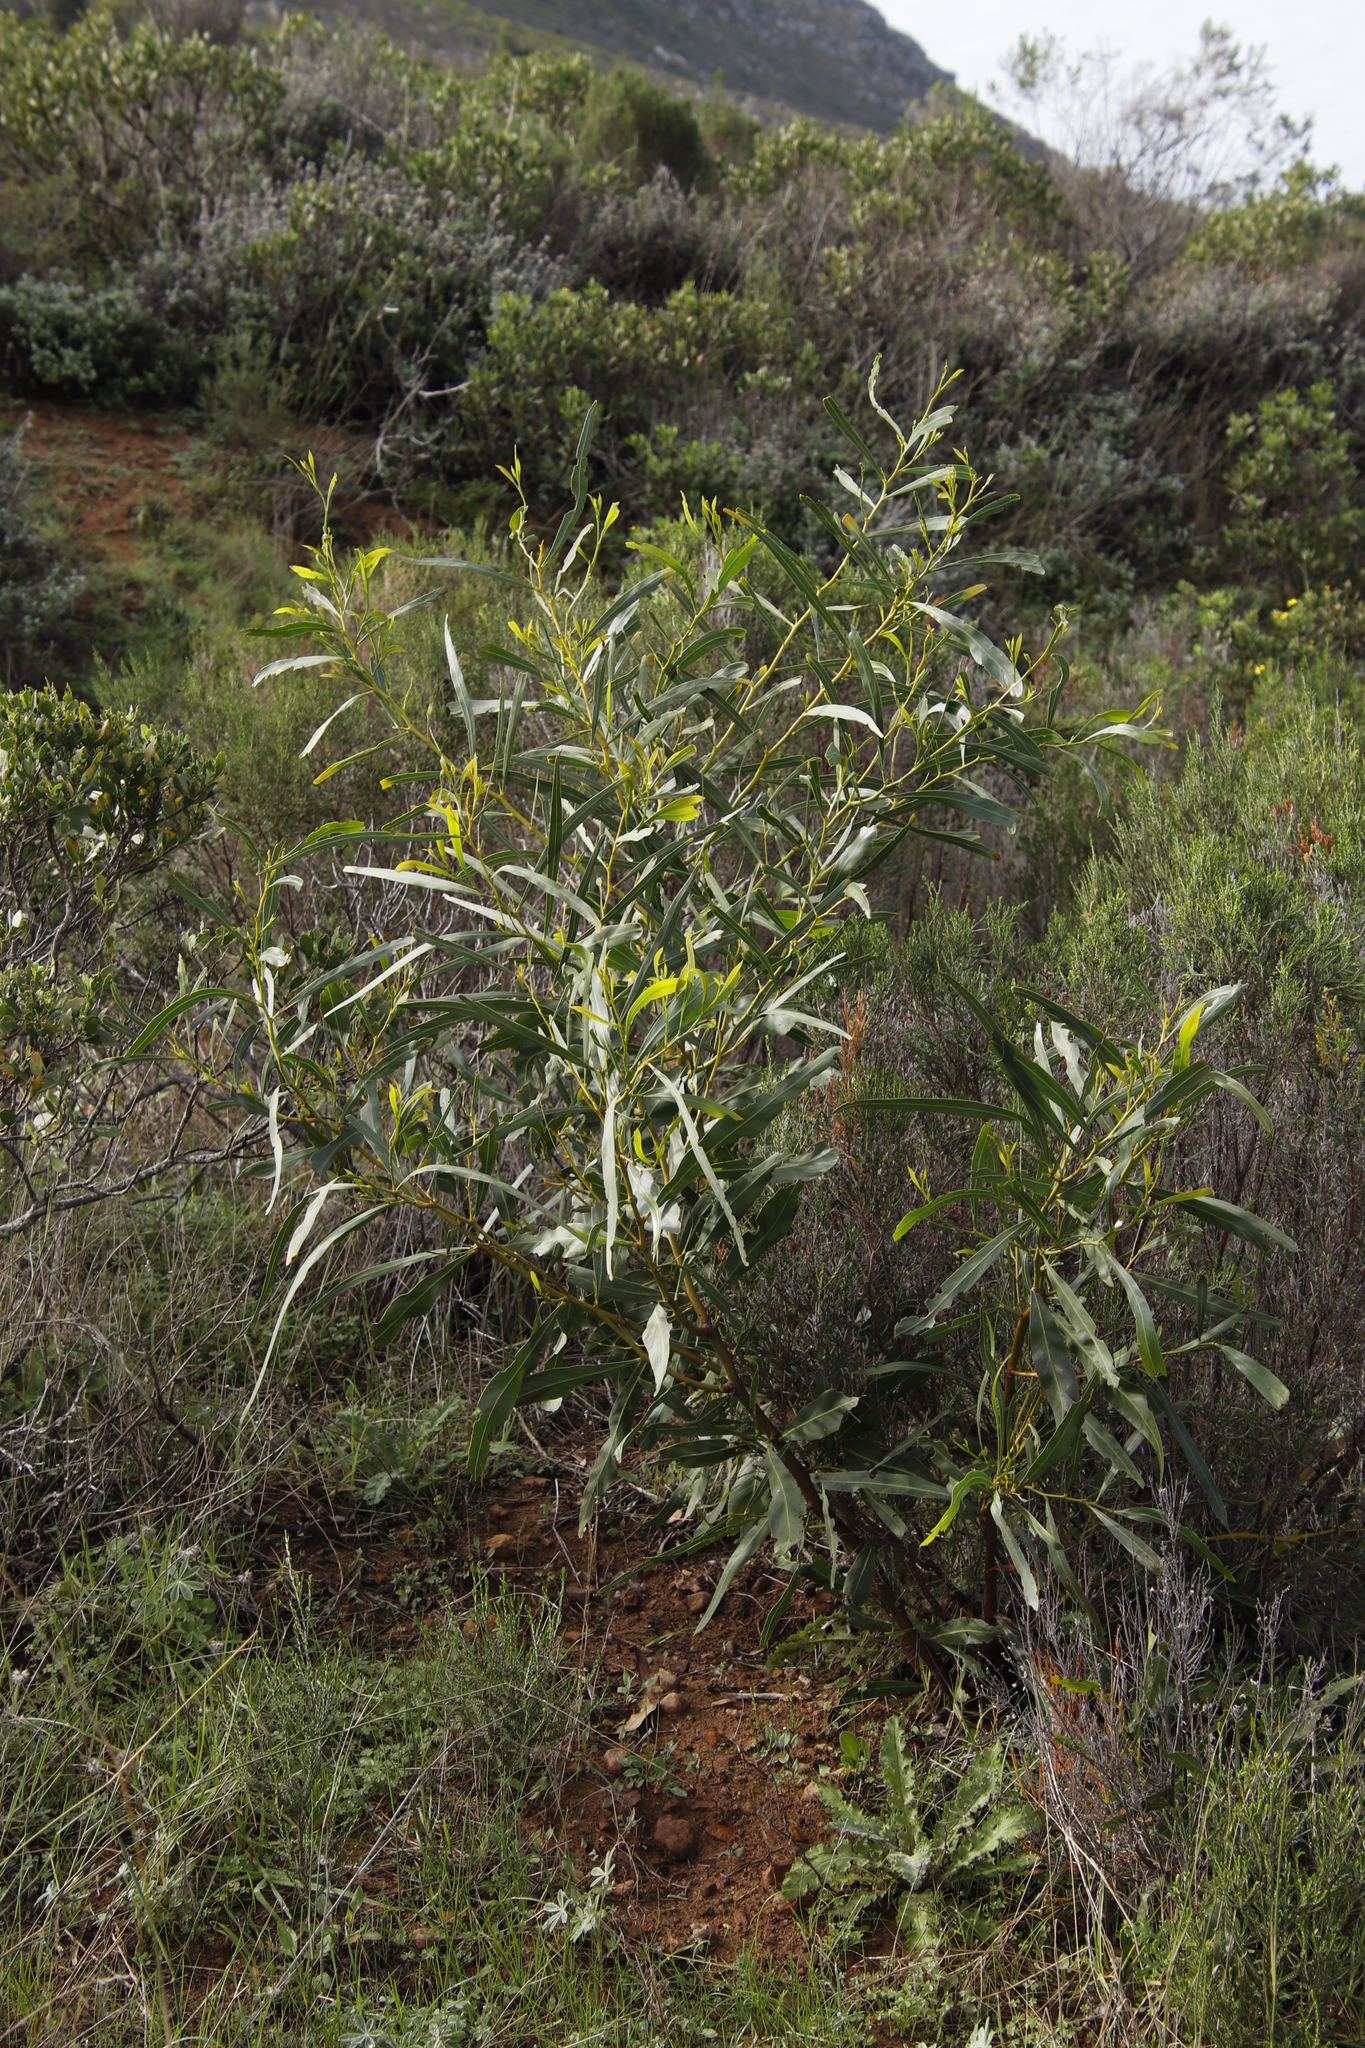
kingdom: Plantae
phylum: Tracheophyta
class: Magnoliopsida
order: Fabales
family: Fabaceae
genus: Acacia
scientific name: Acacia saligna
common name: Orange wattle
